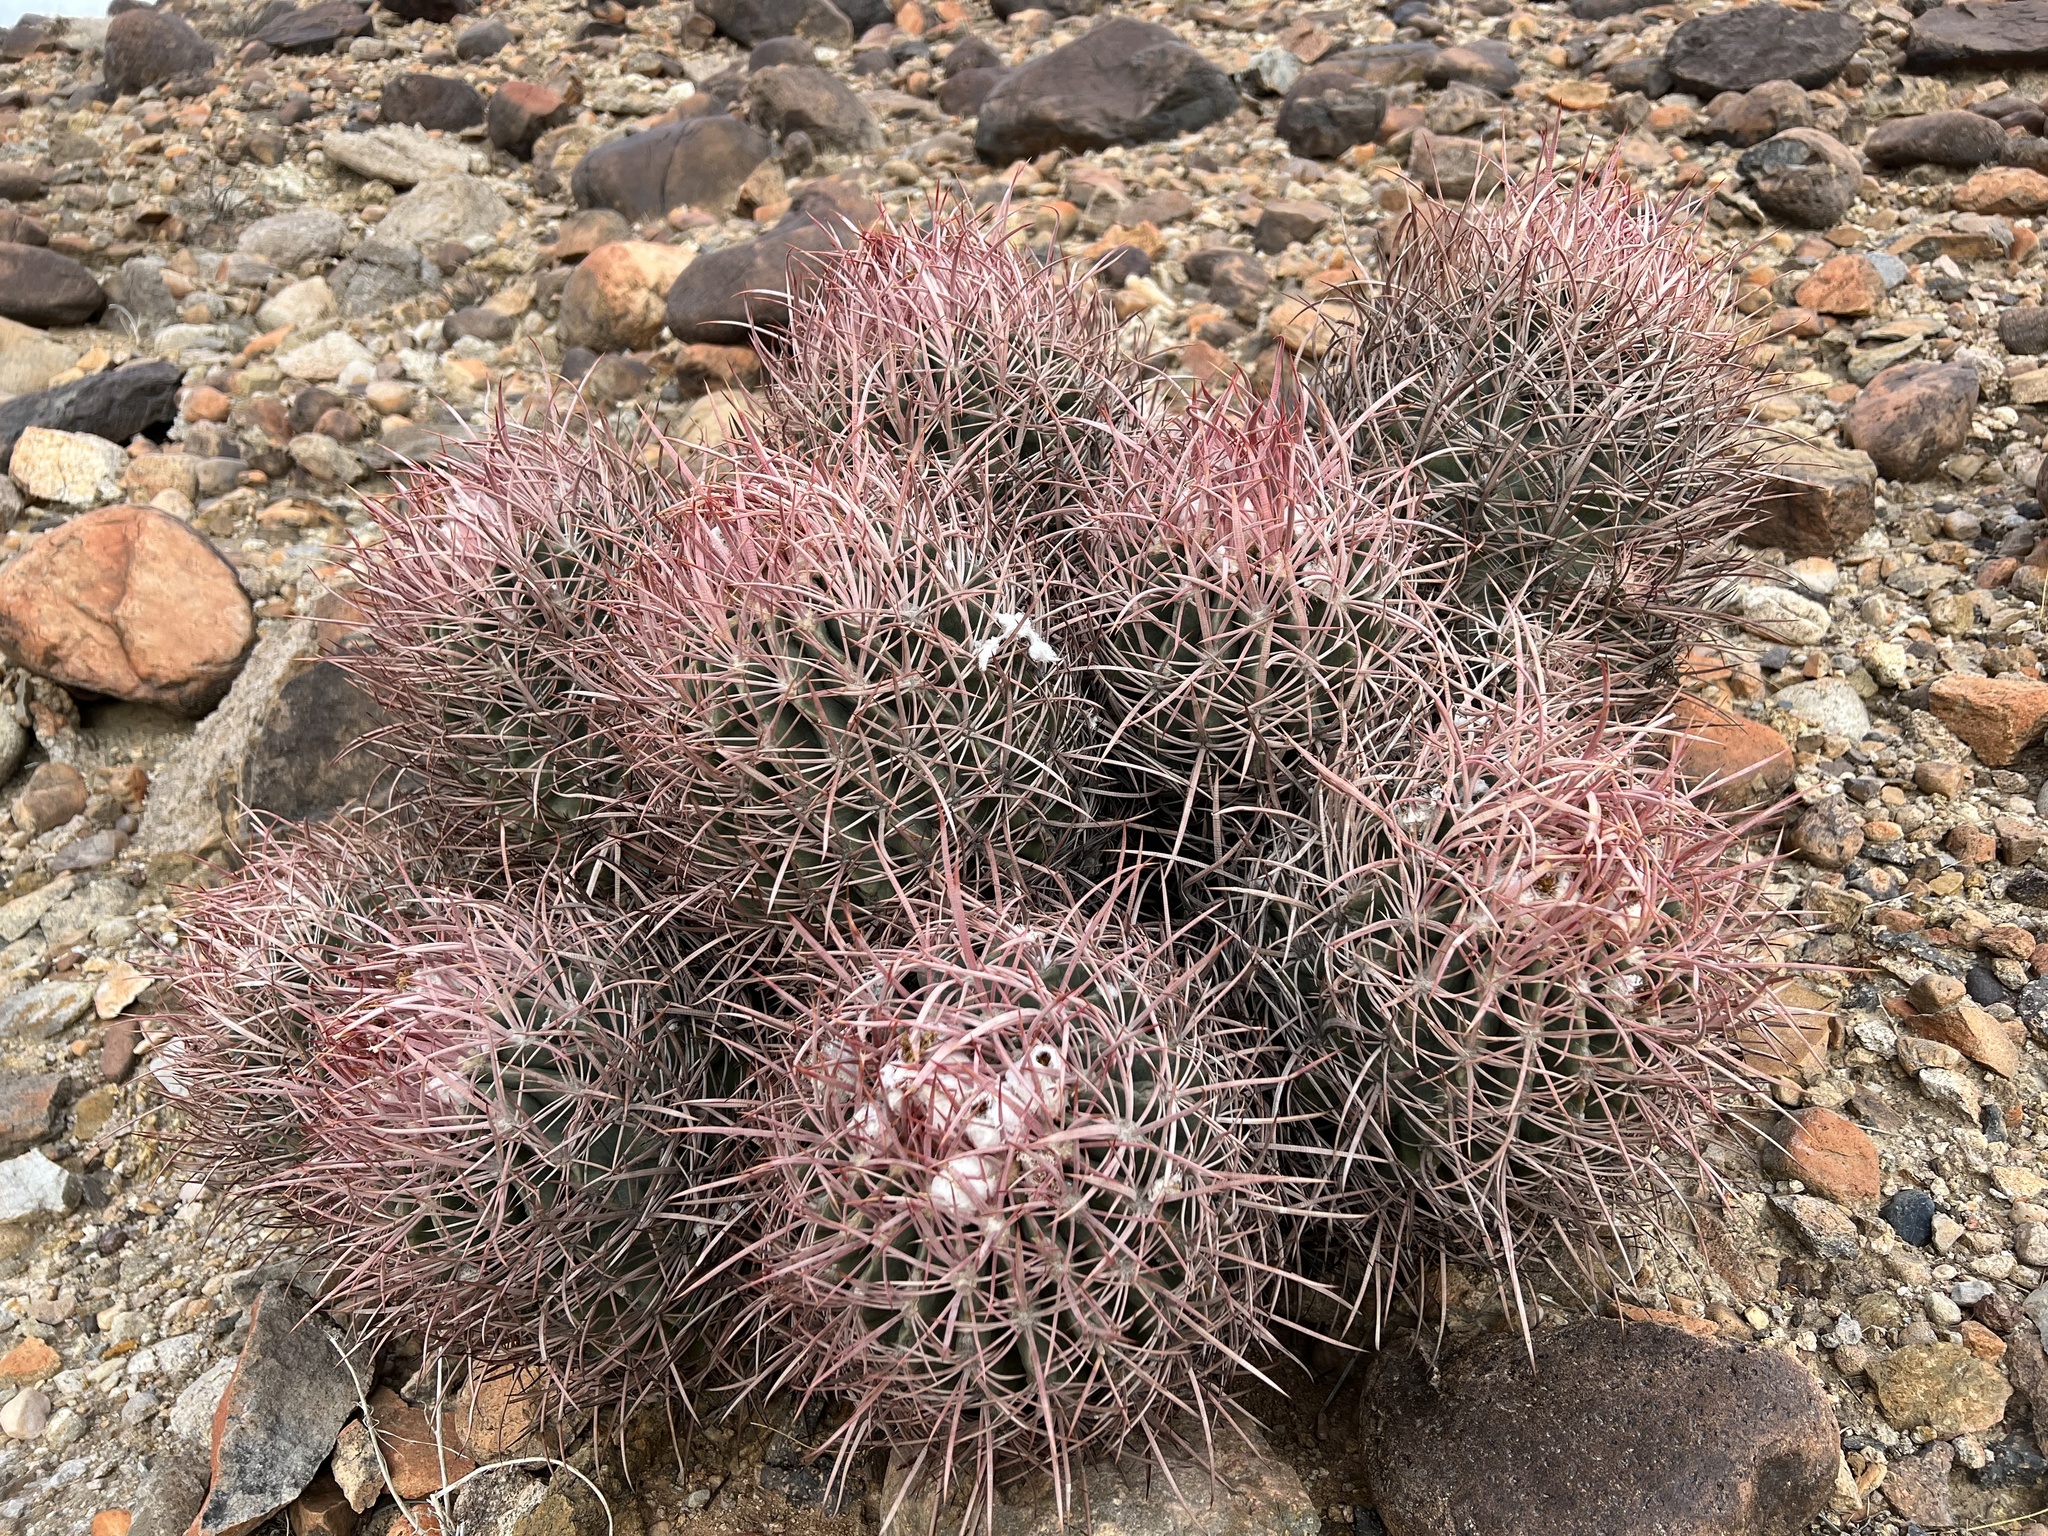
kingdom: Plantae
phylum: Tracheophyta
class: Magnoliopsida
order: Caryophyllales
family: Cactaceae
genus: Echinocactus
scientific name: Echinocactus polycephalus
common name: Cottontop cactus
